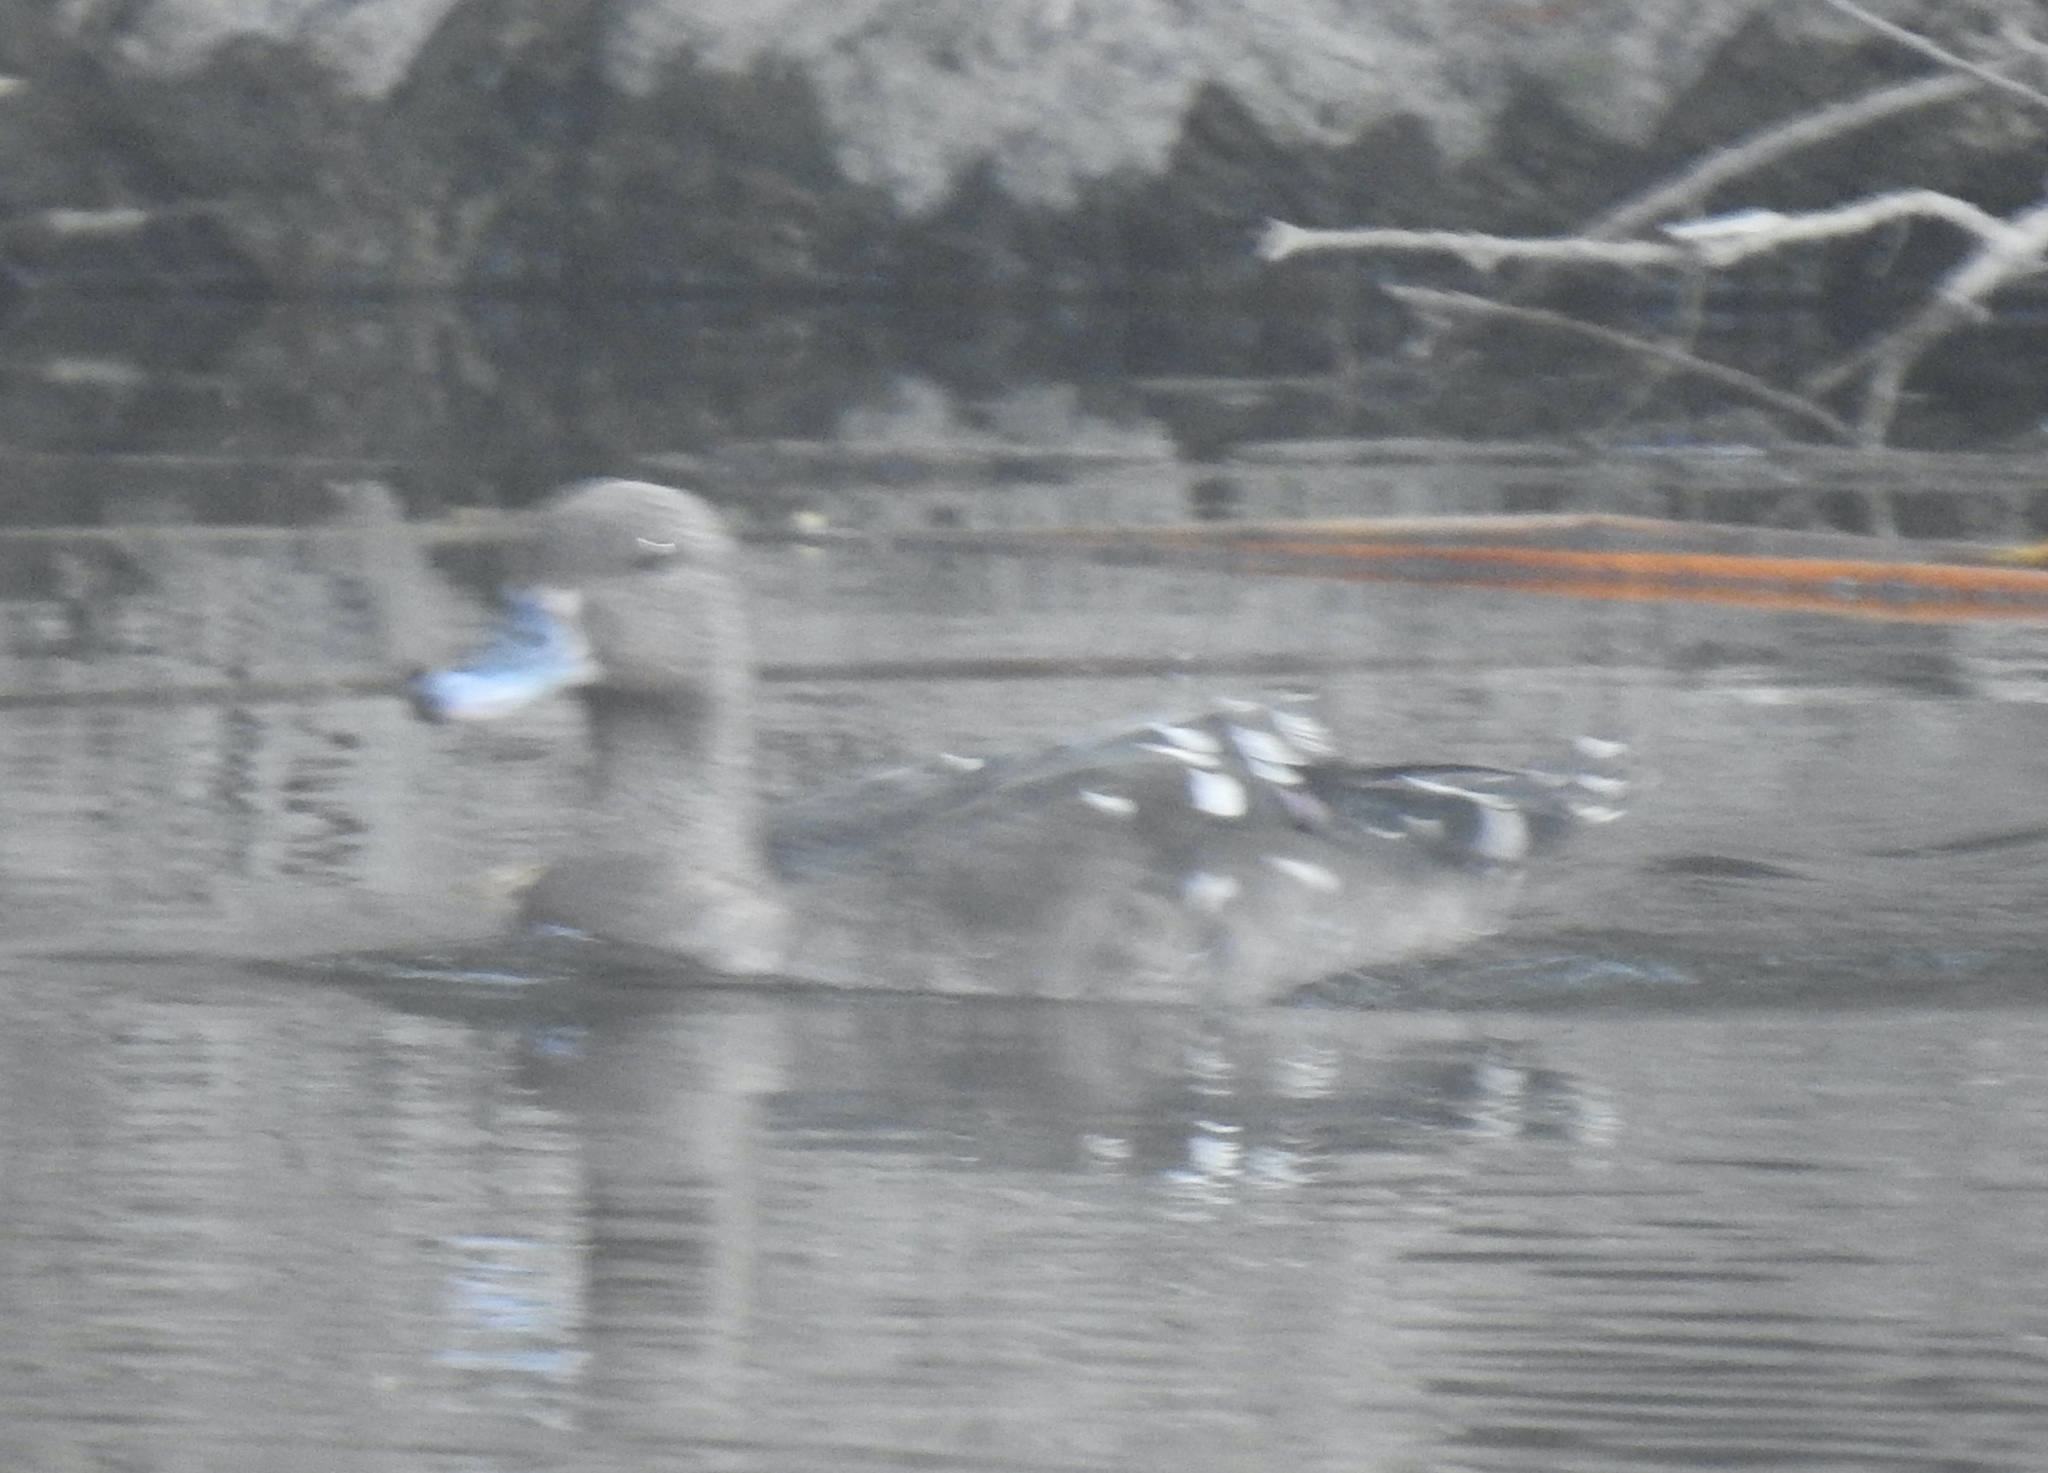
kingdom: Animalia
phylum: Chordata
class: Aves
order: Anseriformes
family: Anatidae
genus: Anas
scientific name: Anas sparsa
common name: African black duck
